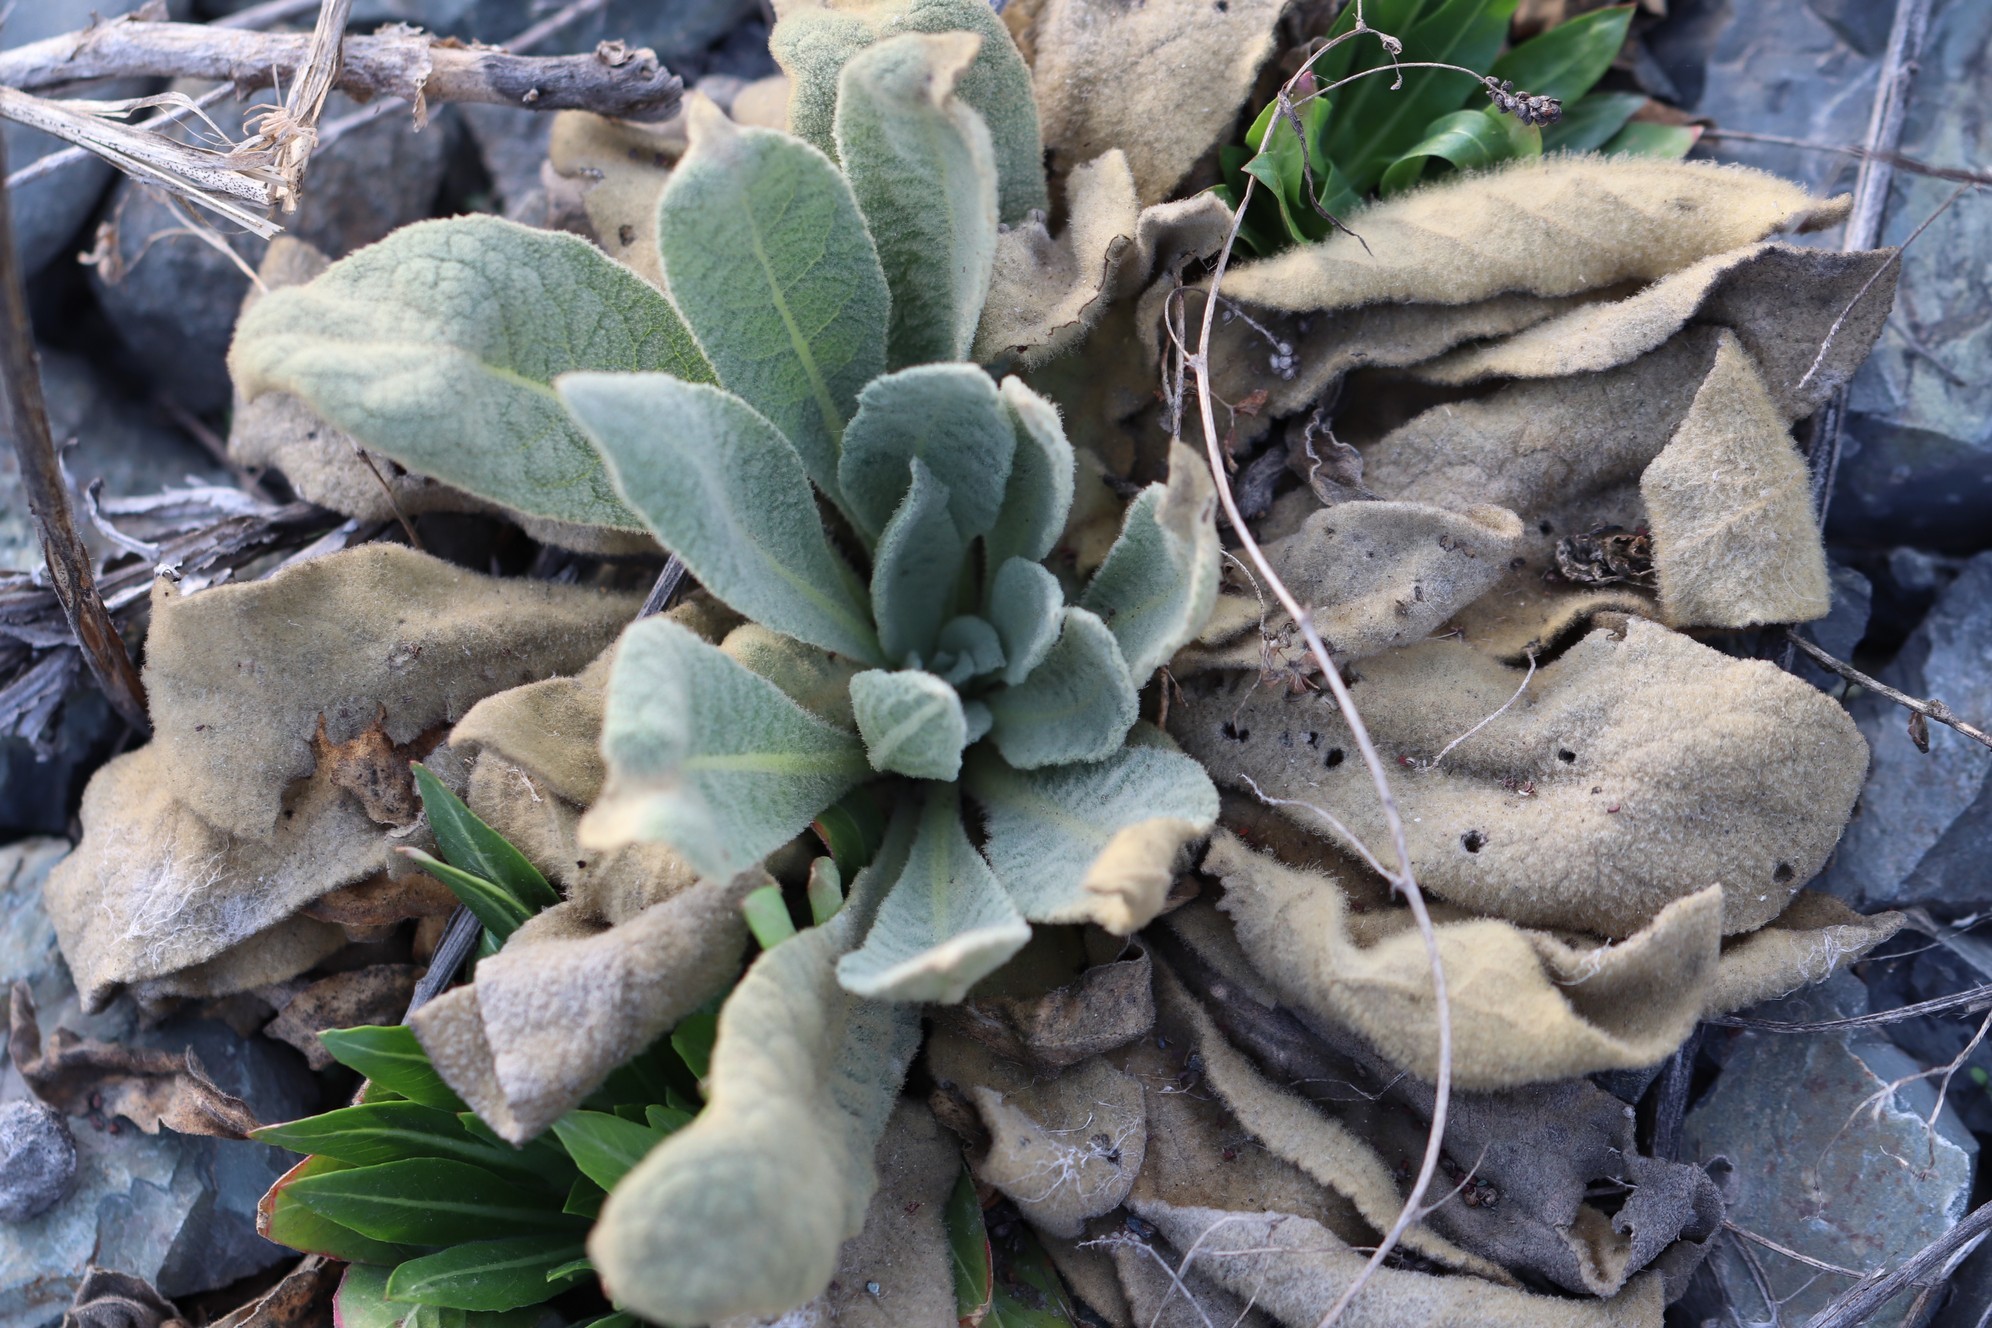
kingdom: Plantae
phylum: Tracheophyta
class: Magnoliopsida
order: Lamiales
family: Scrophulariaceae
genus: Verbascum
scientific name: Verbascum thapsus
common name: Common mullein
